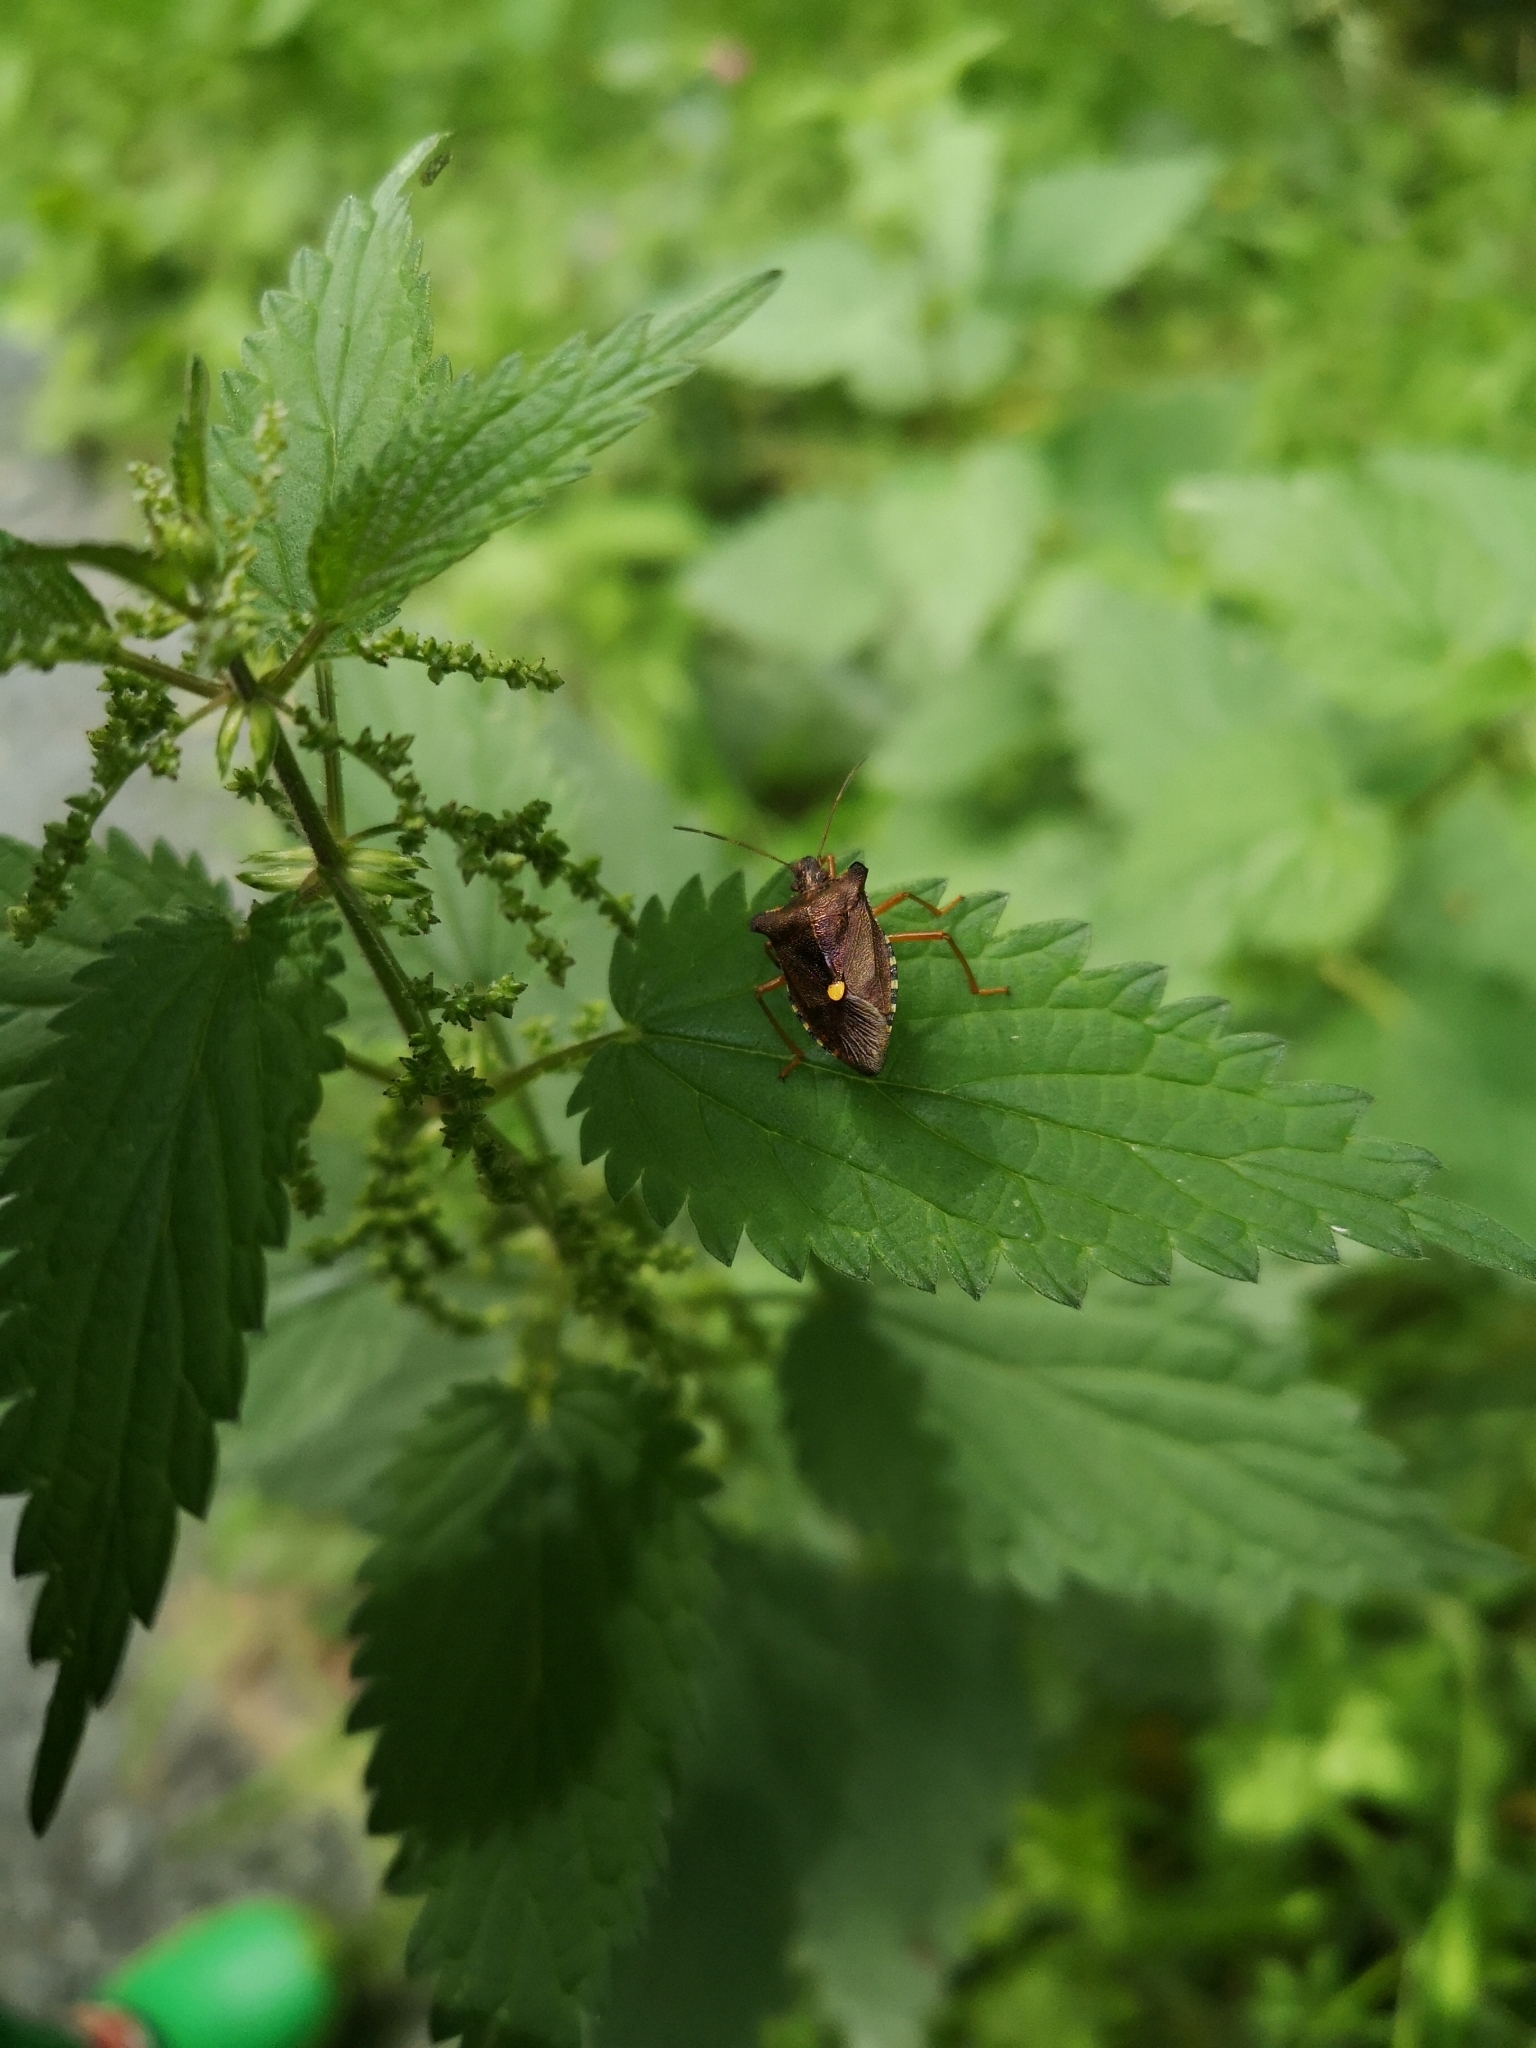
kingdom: Animalia
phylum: Arthropoda
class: Insecta
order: Hemiptera
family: Pentatomidae
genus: Pentatoma
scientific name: Pentatoma rufipes
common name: Forest bug
